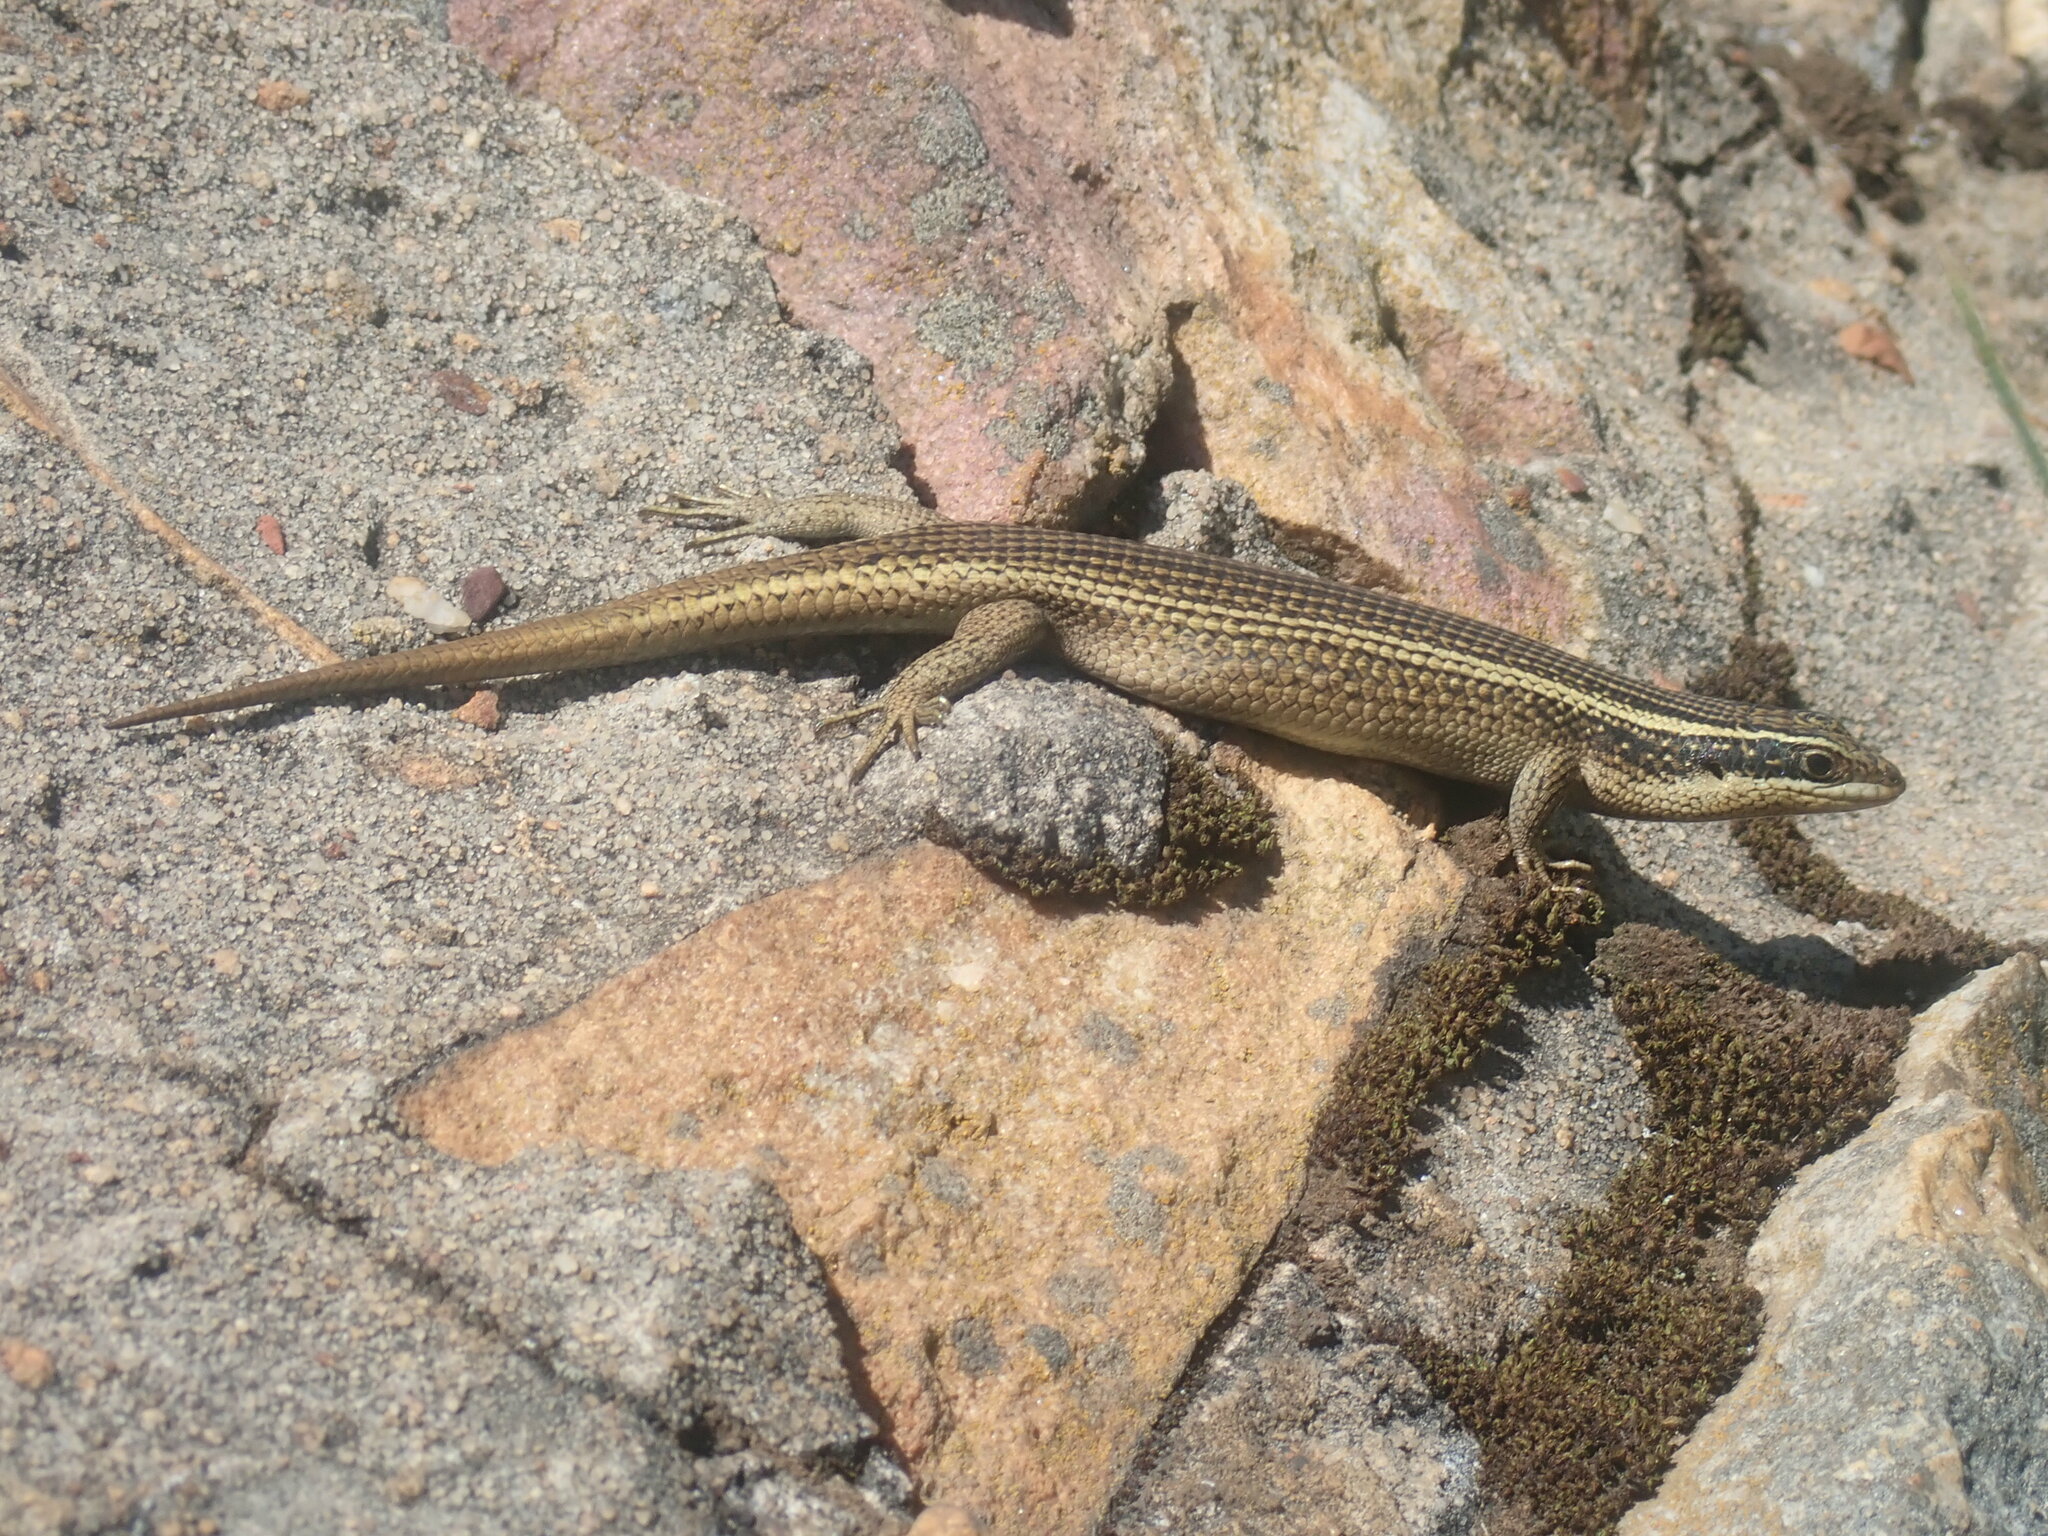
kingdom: Animalia
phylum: Chordata
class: Squamata
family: Scincidae
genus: Trachylepis
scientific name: Trachylepis punctatissima
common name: Montane speckled skink
